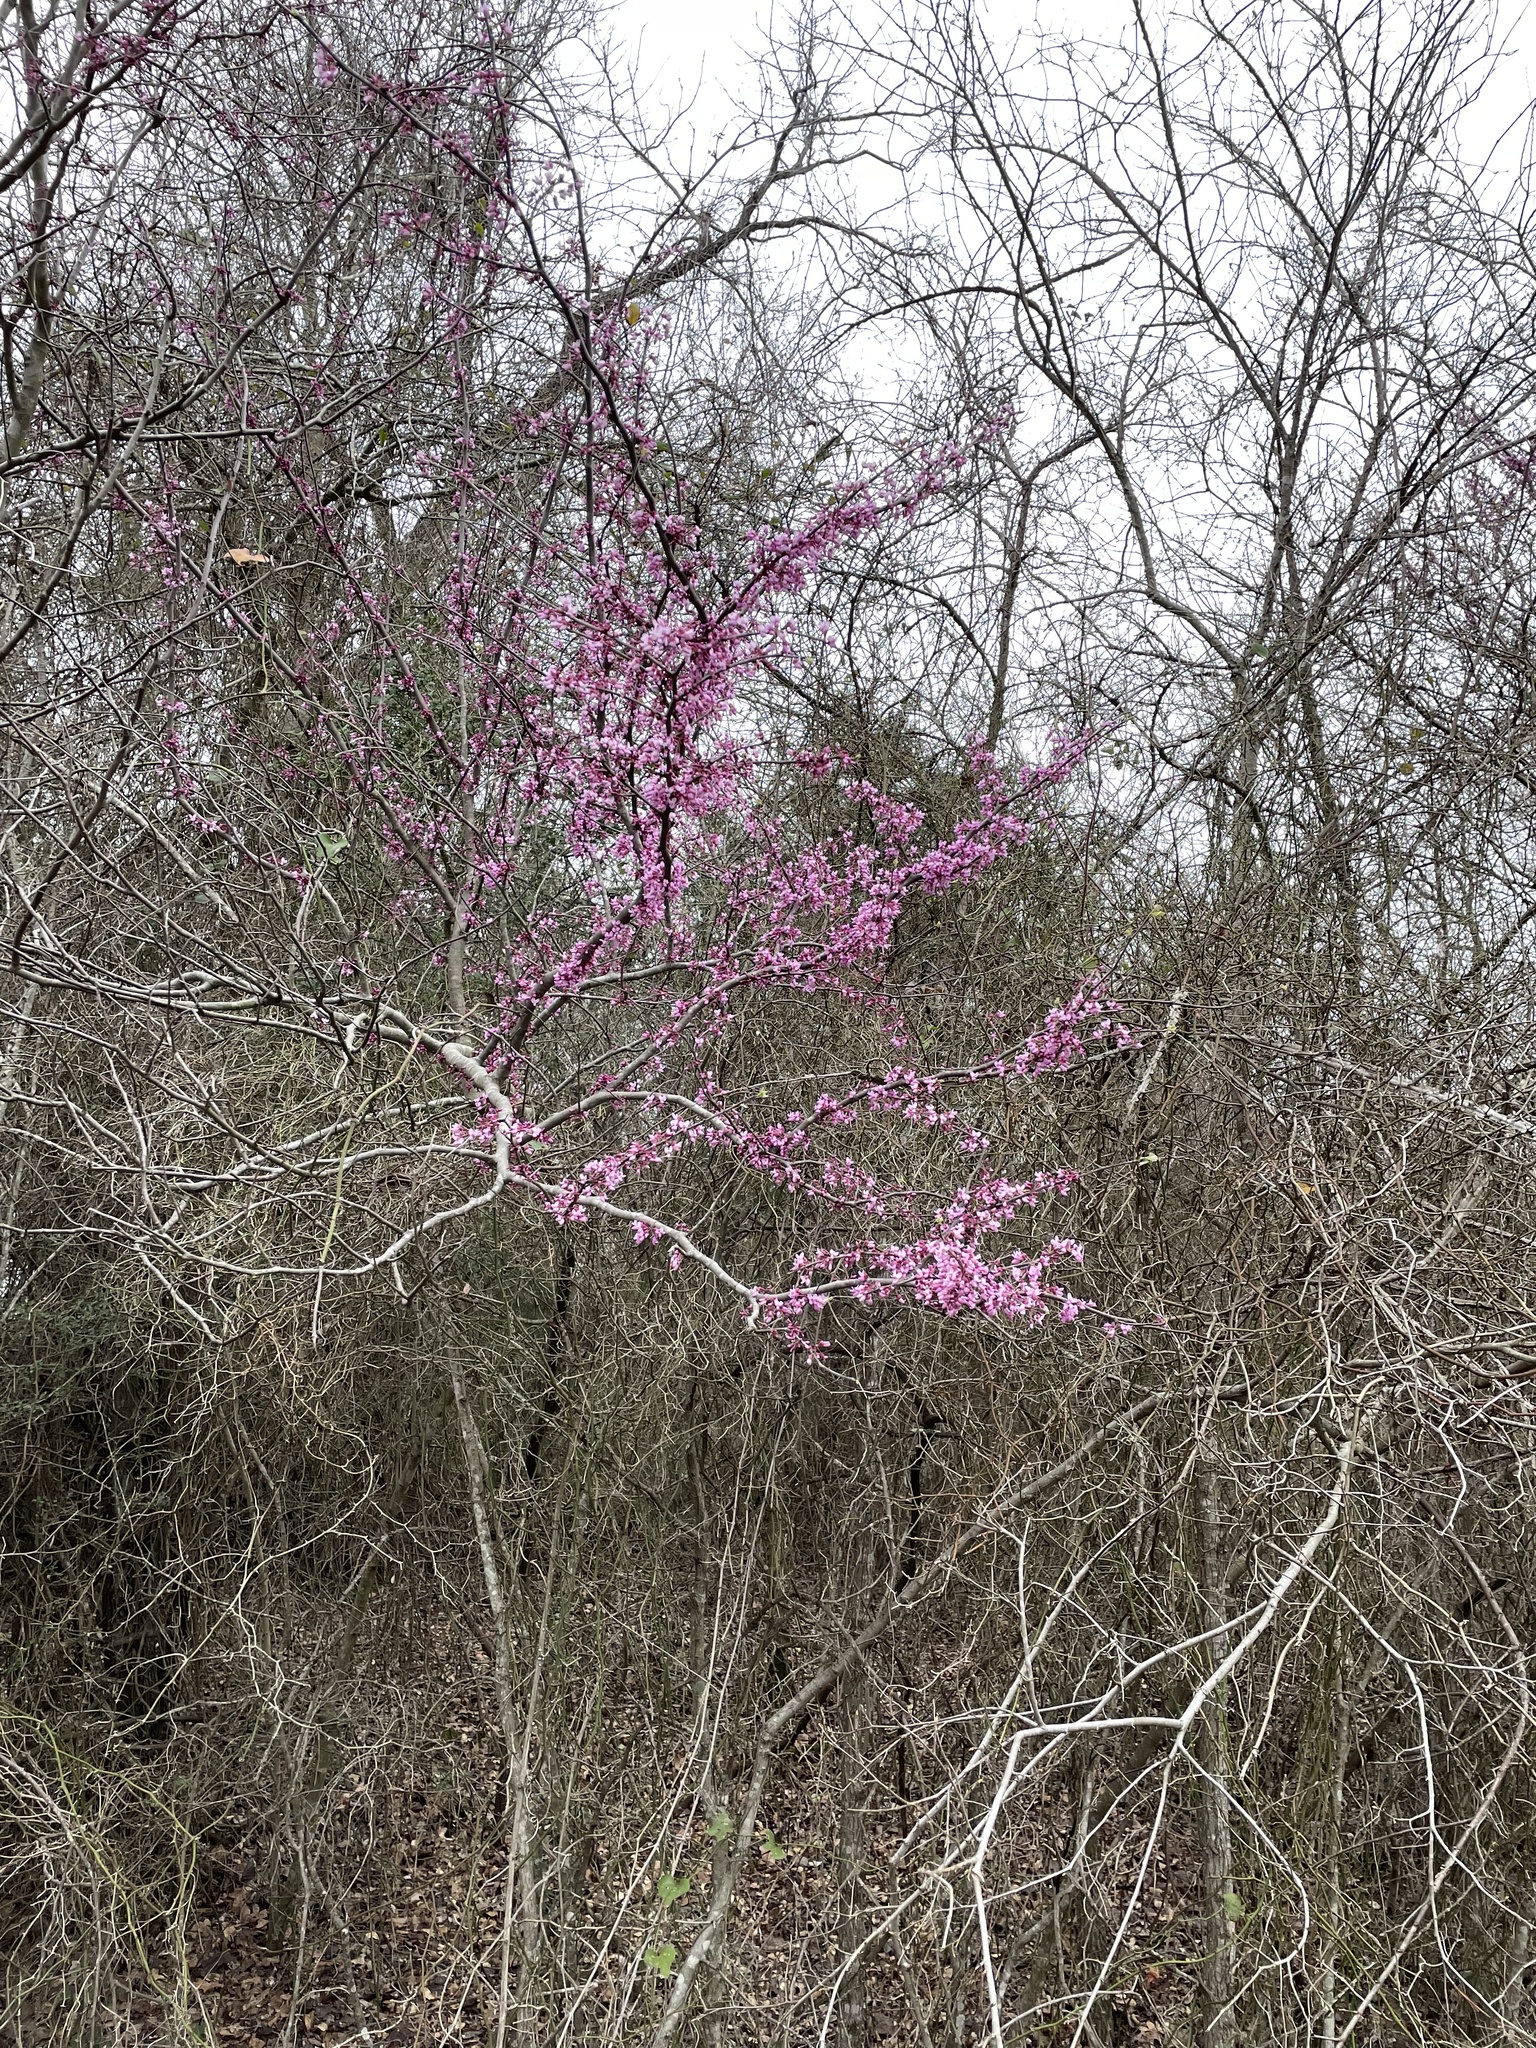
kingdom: Plantae
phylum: Tracheophyta
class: Magnoliopsida
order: Fabales
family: Fabaceae
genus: Cercis
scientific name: Cercis canadensis
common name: Eastern redbud
